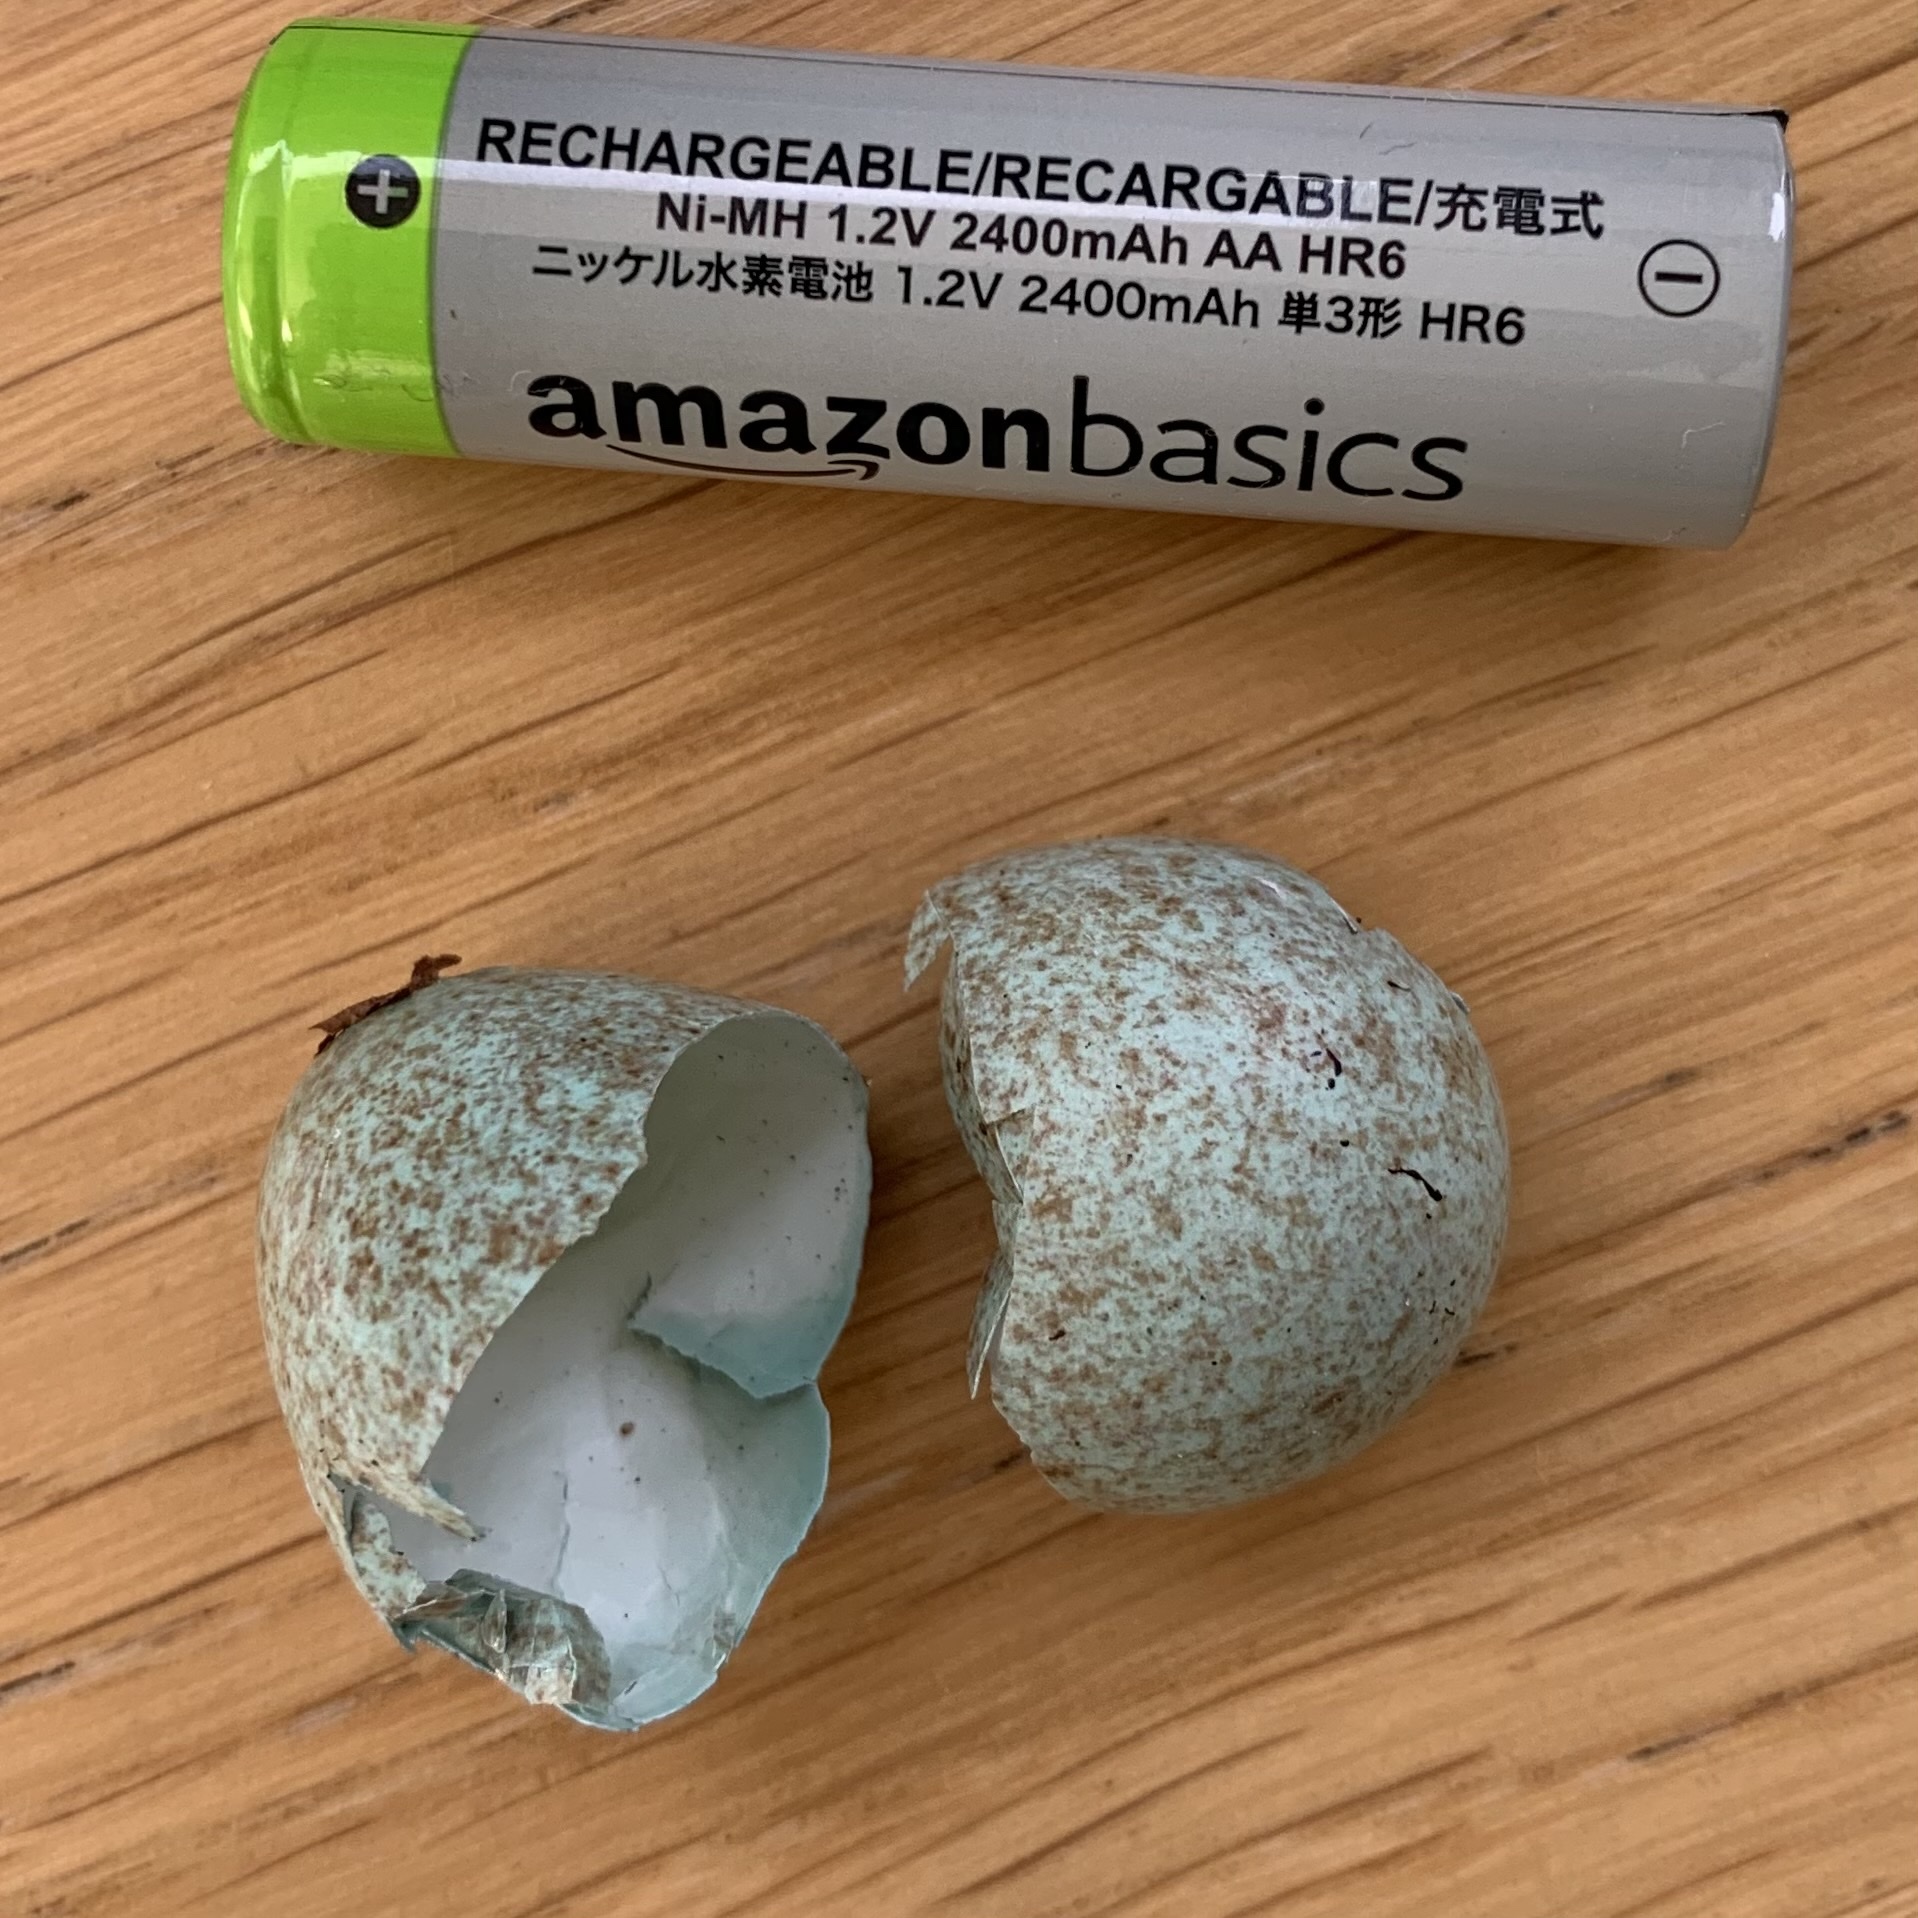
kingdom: Animalia
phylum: Chordata
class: Aves
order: Passeriformes
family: Turdidae
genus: Turdus
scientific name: Turdus merula
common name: Common blackbird
